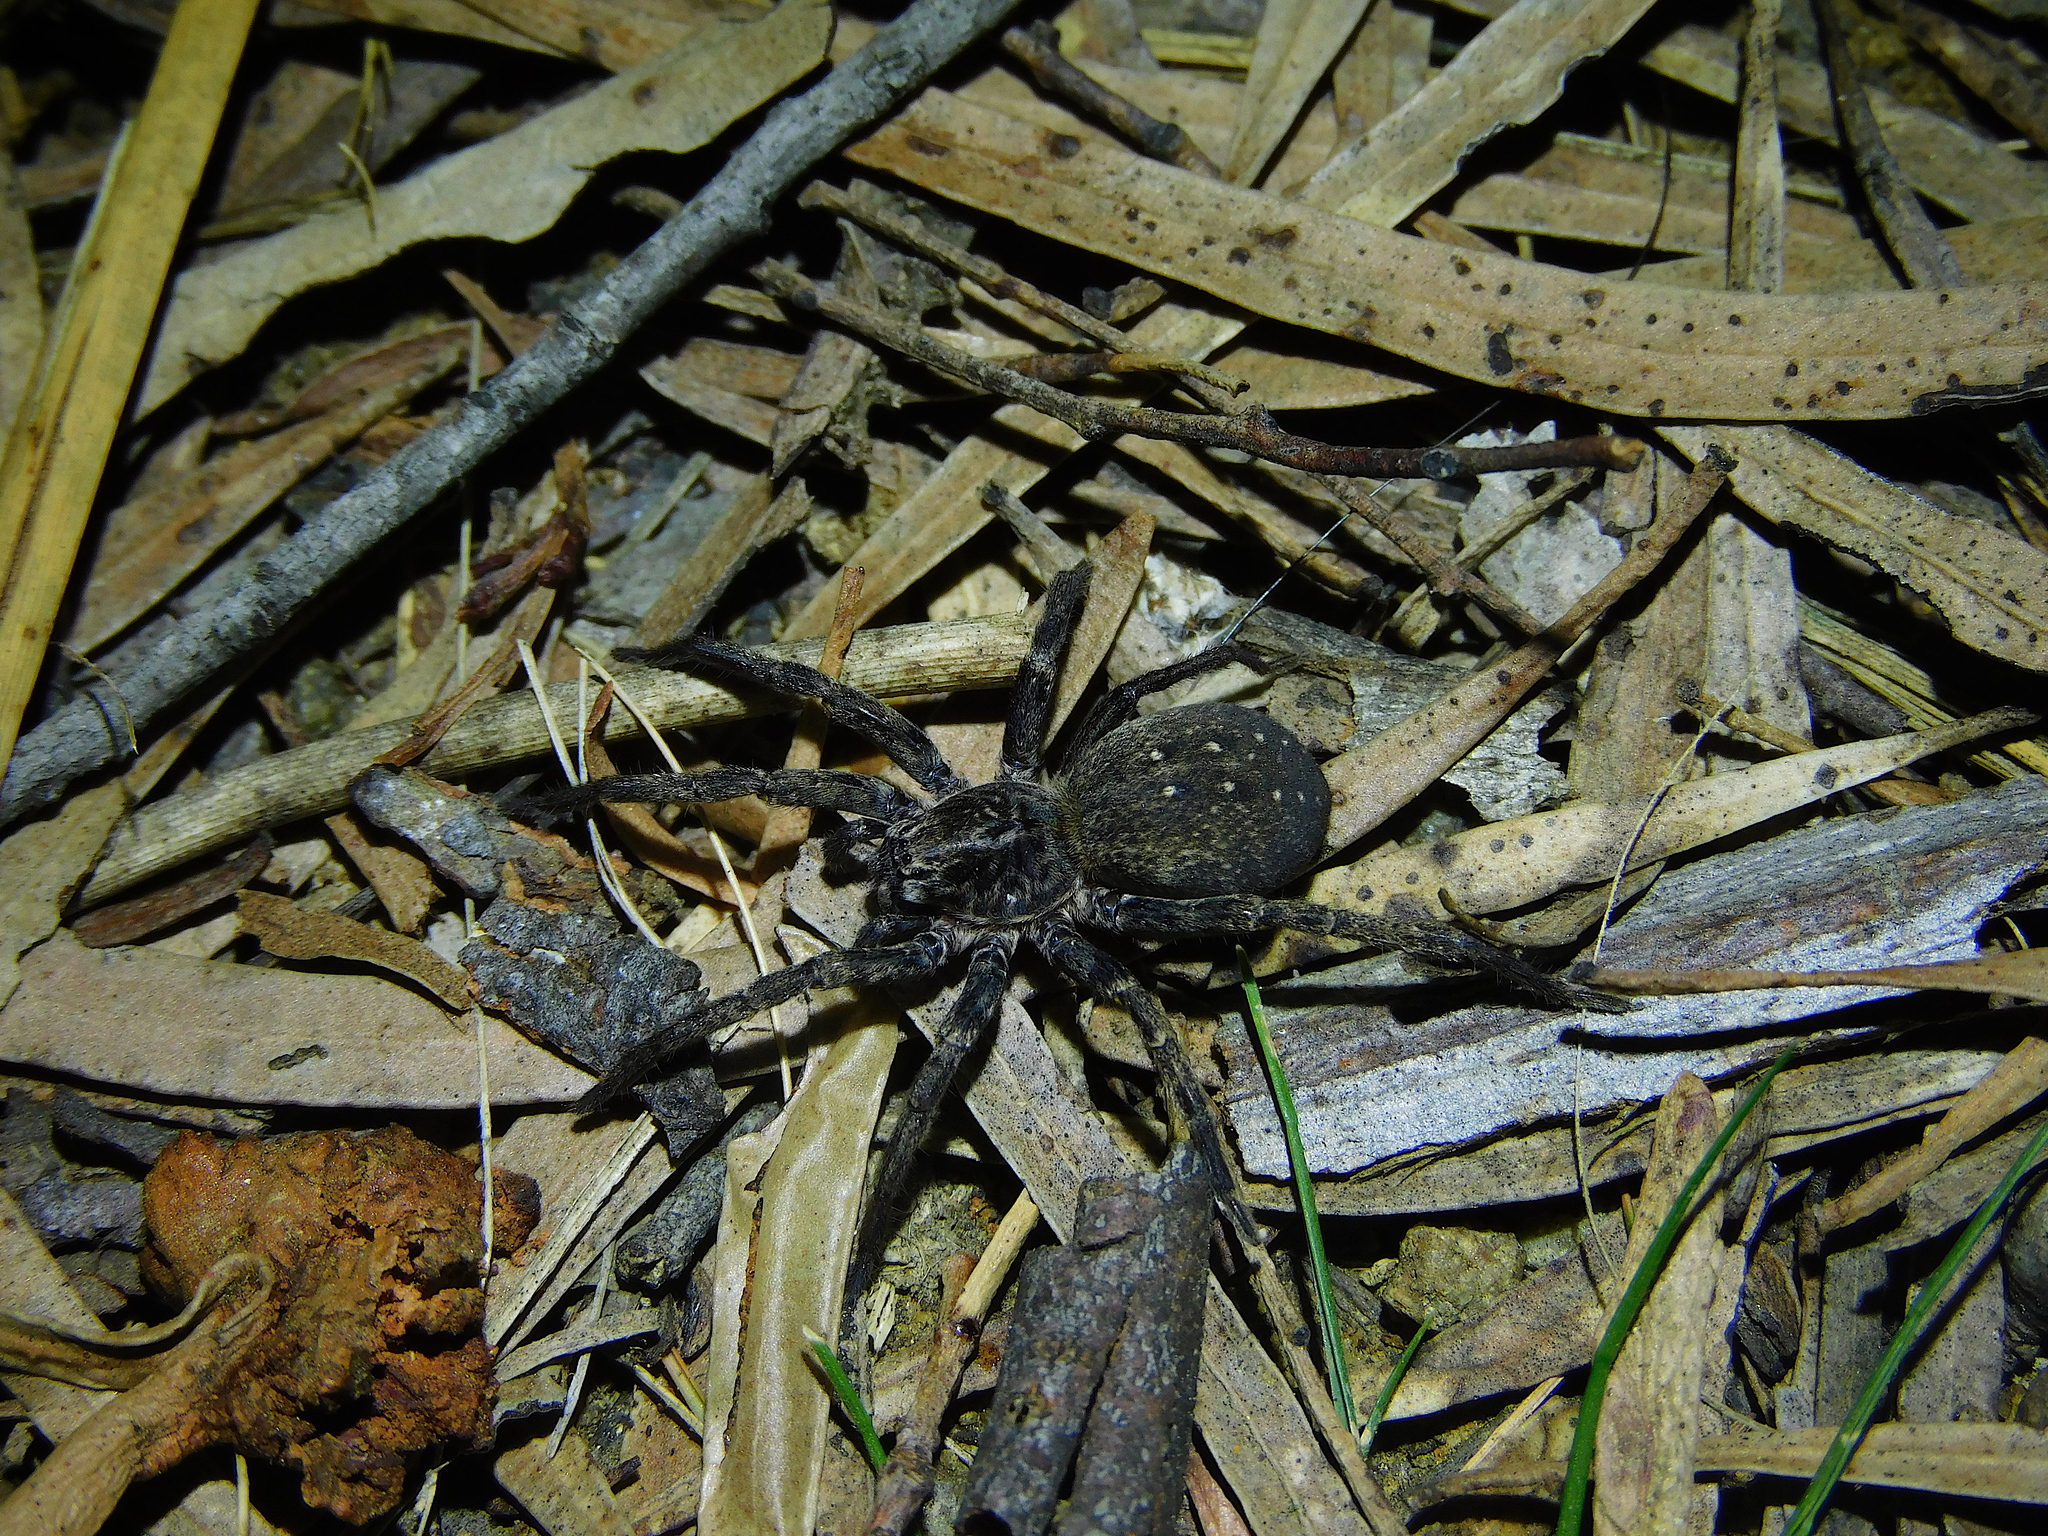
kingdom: Animalia
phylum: Arthropoda
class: Arachnida
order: Araneae
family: Miturgidae
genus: Mituliodon
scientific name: Mituliodon tarantulinus
